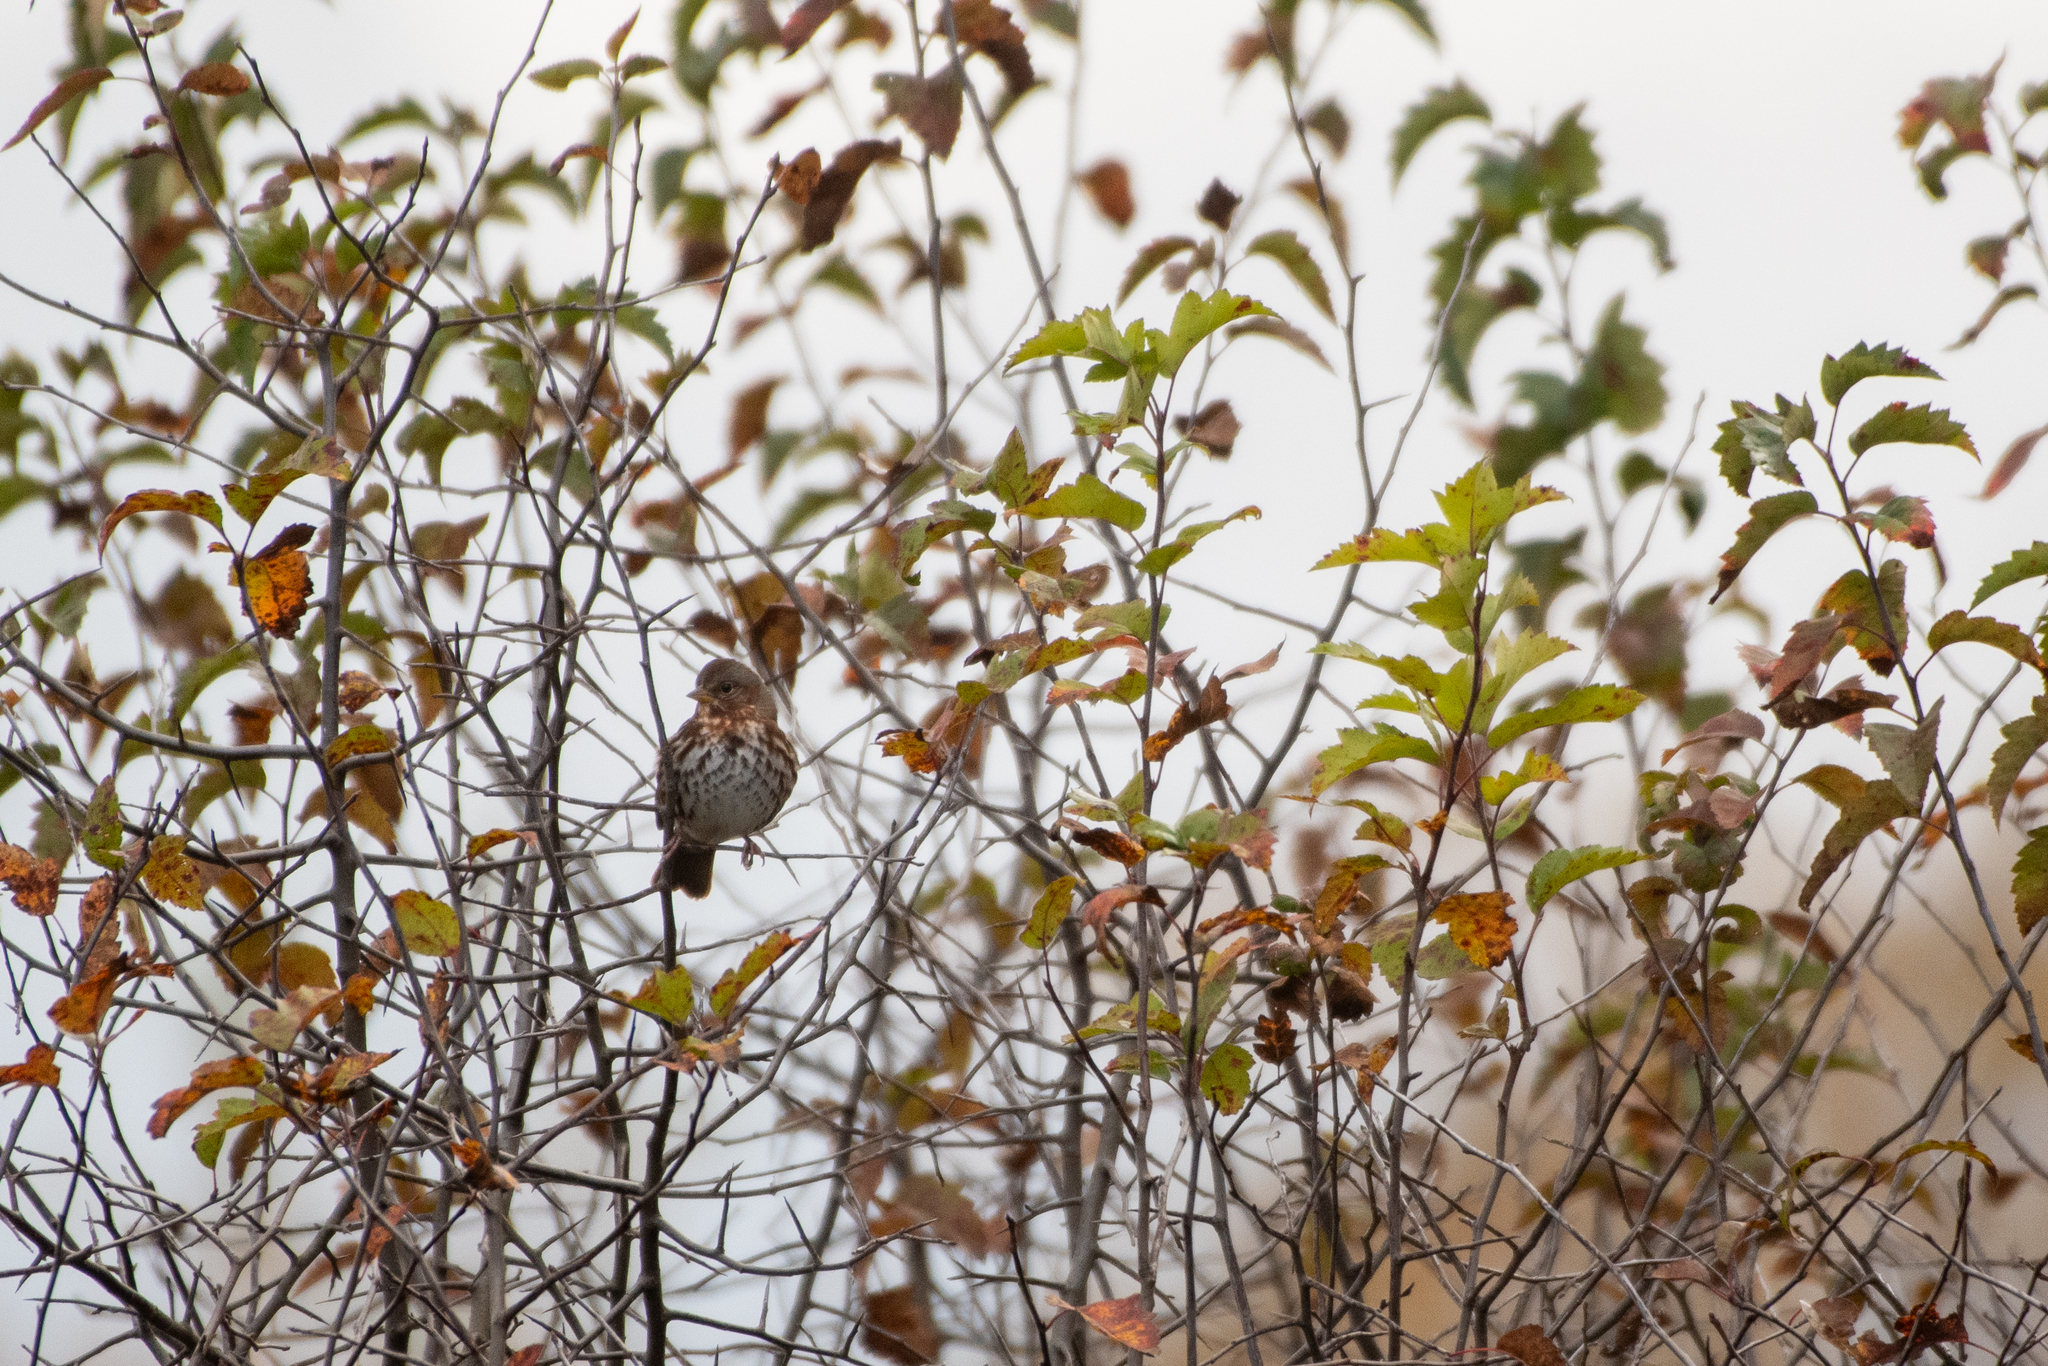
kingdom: Animalia
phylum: Chordata
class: Aves
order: Passeriformes
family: Passerellidae
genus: Passerella
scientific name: Passerella iliaca
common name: Fox sparrow
